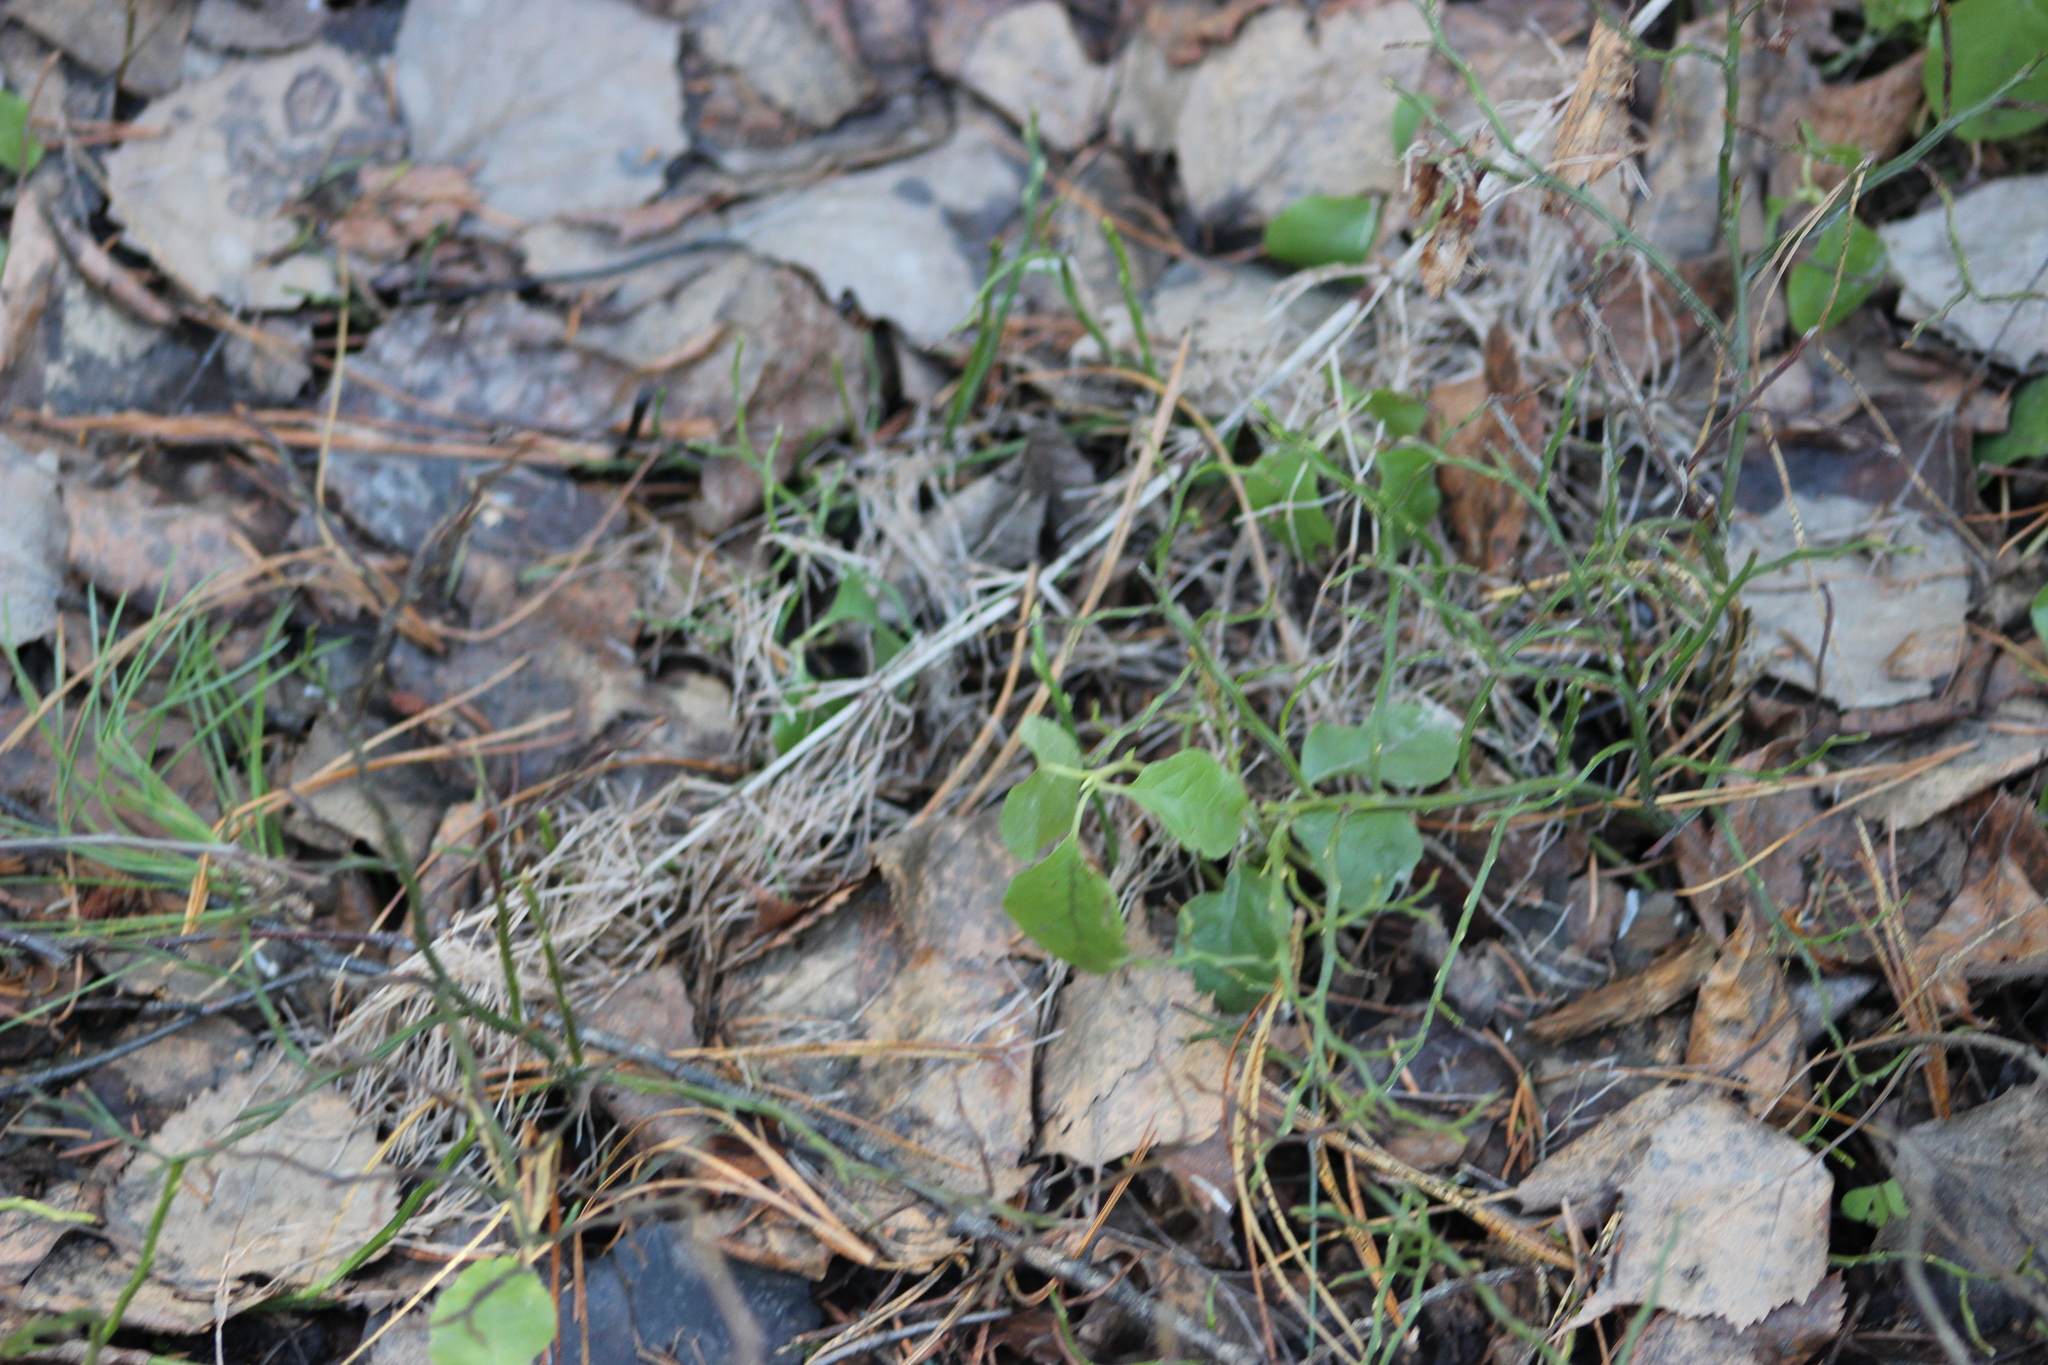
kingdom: Plantae
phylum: Tracheophyta
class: Magnoliopsida
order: Ericales
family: Ericaceae
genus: Vaccinium
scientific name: Vaccinium myrtillus
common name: Bilberry
